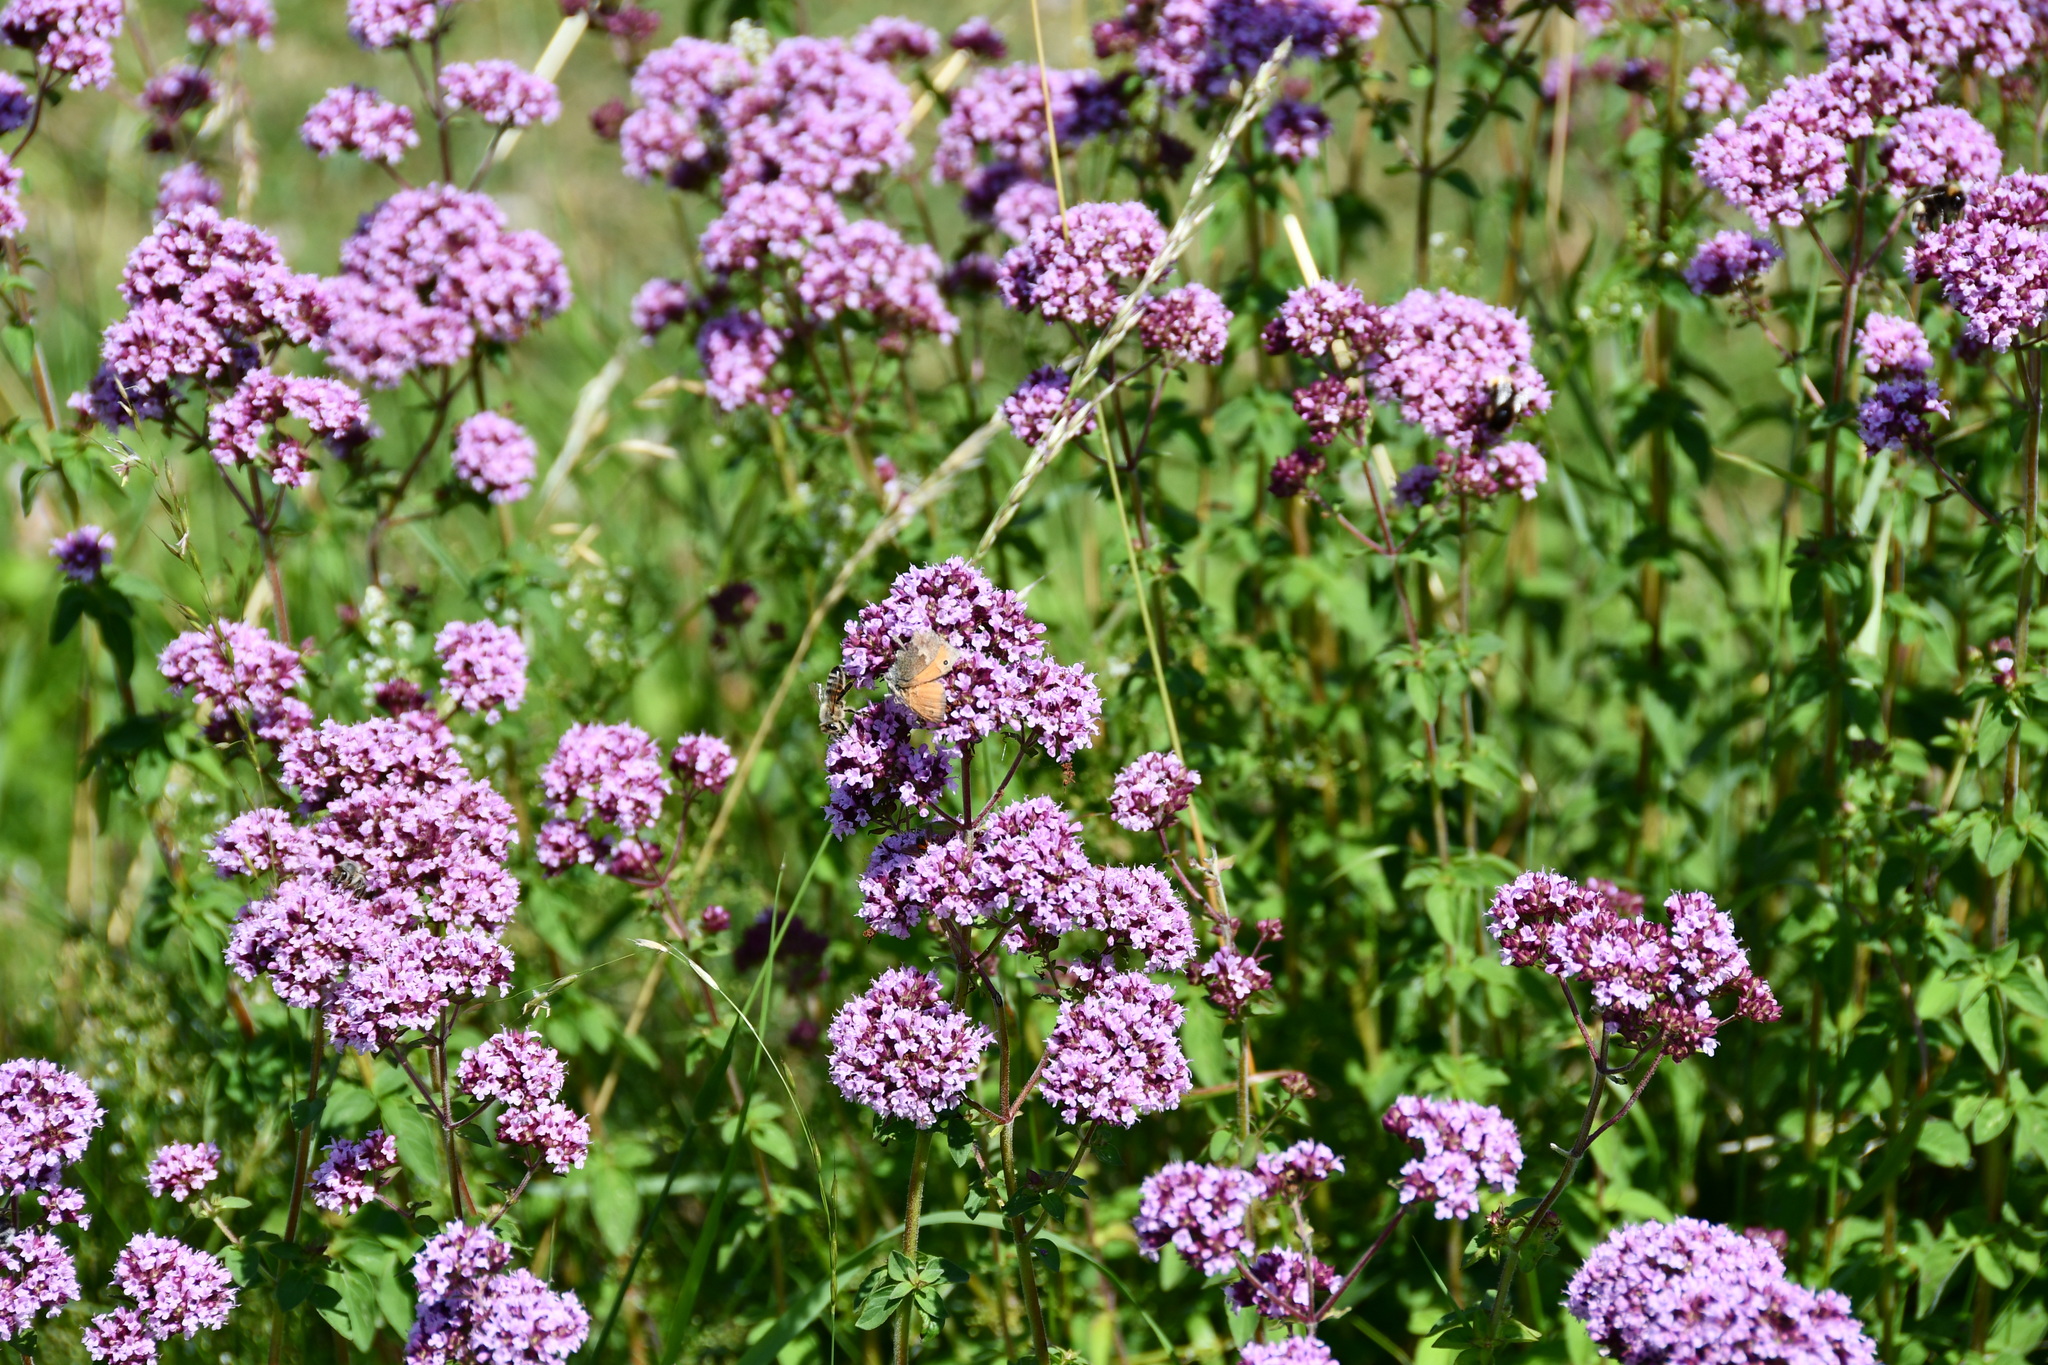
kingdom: Animalia
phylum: Arthropoda
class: Insecta
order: Lepidoptera
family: Nymphalidae
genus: Coenonympha
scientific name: Coenonympha pamphilus
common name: Small heath
